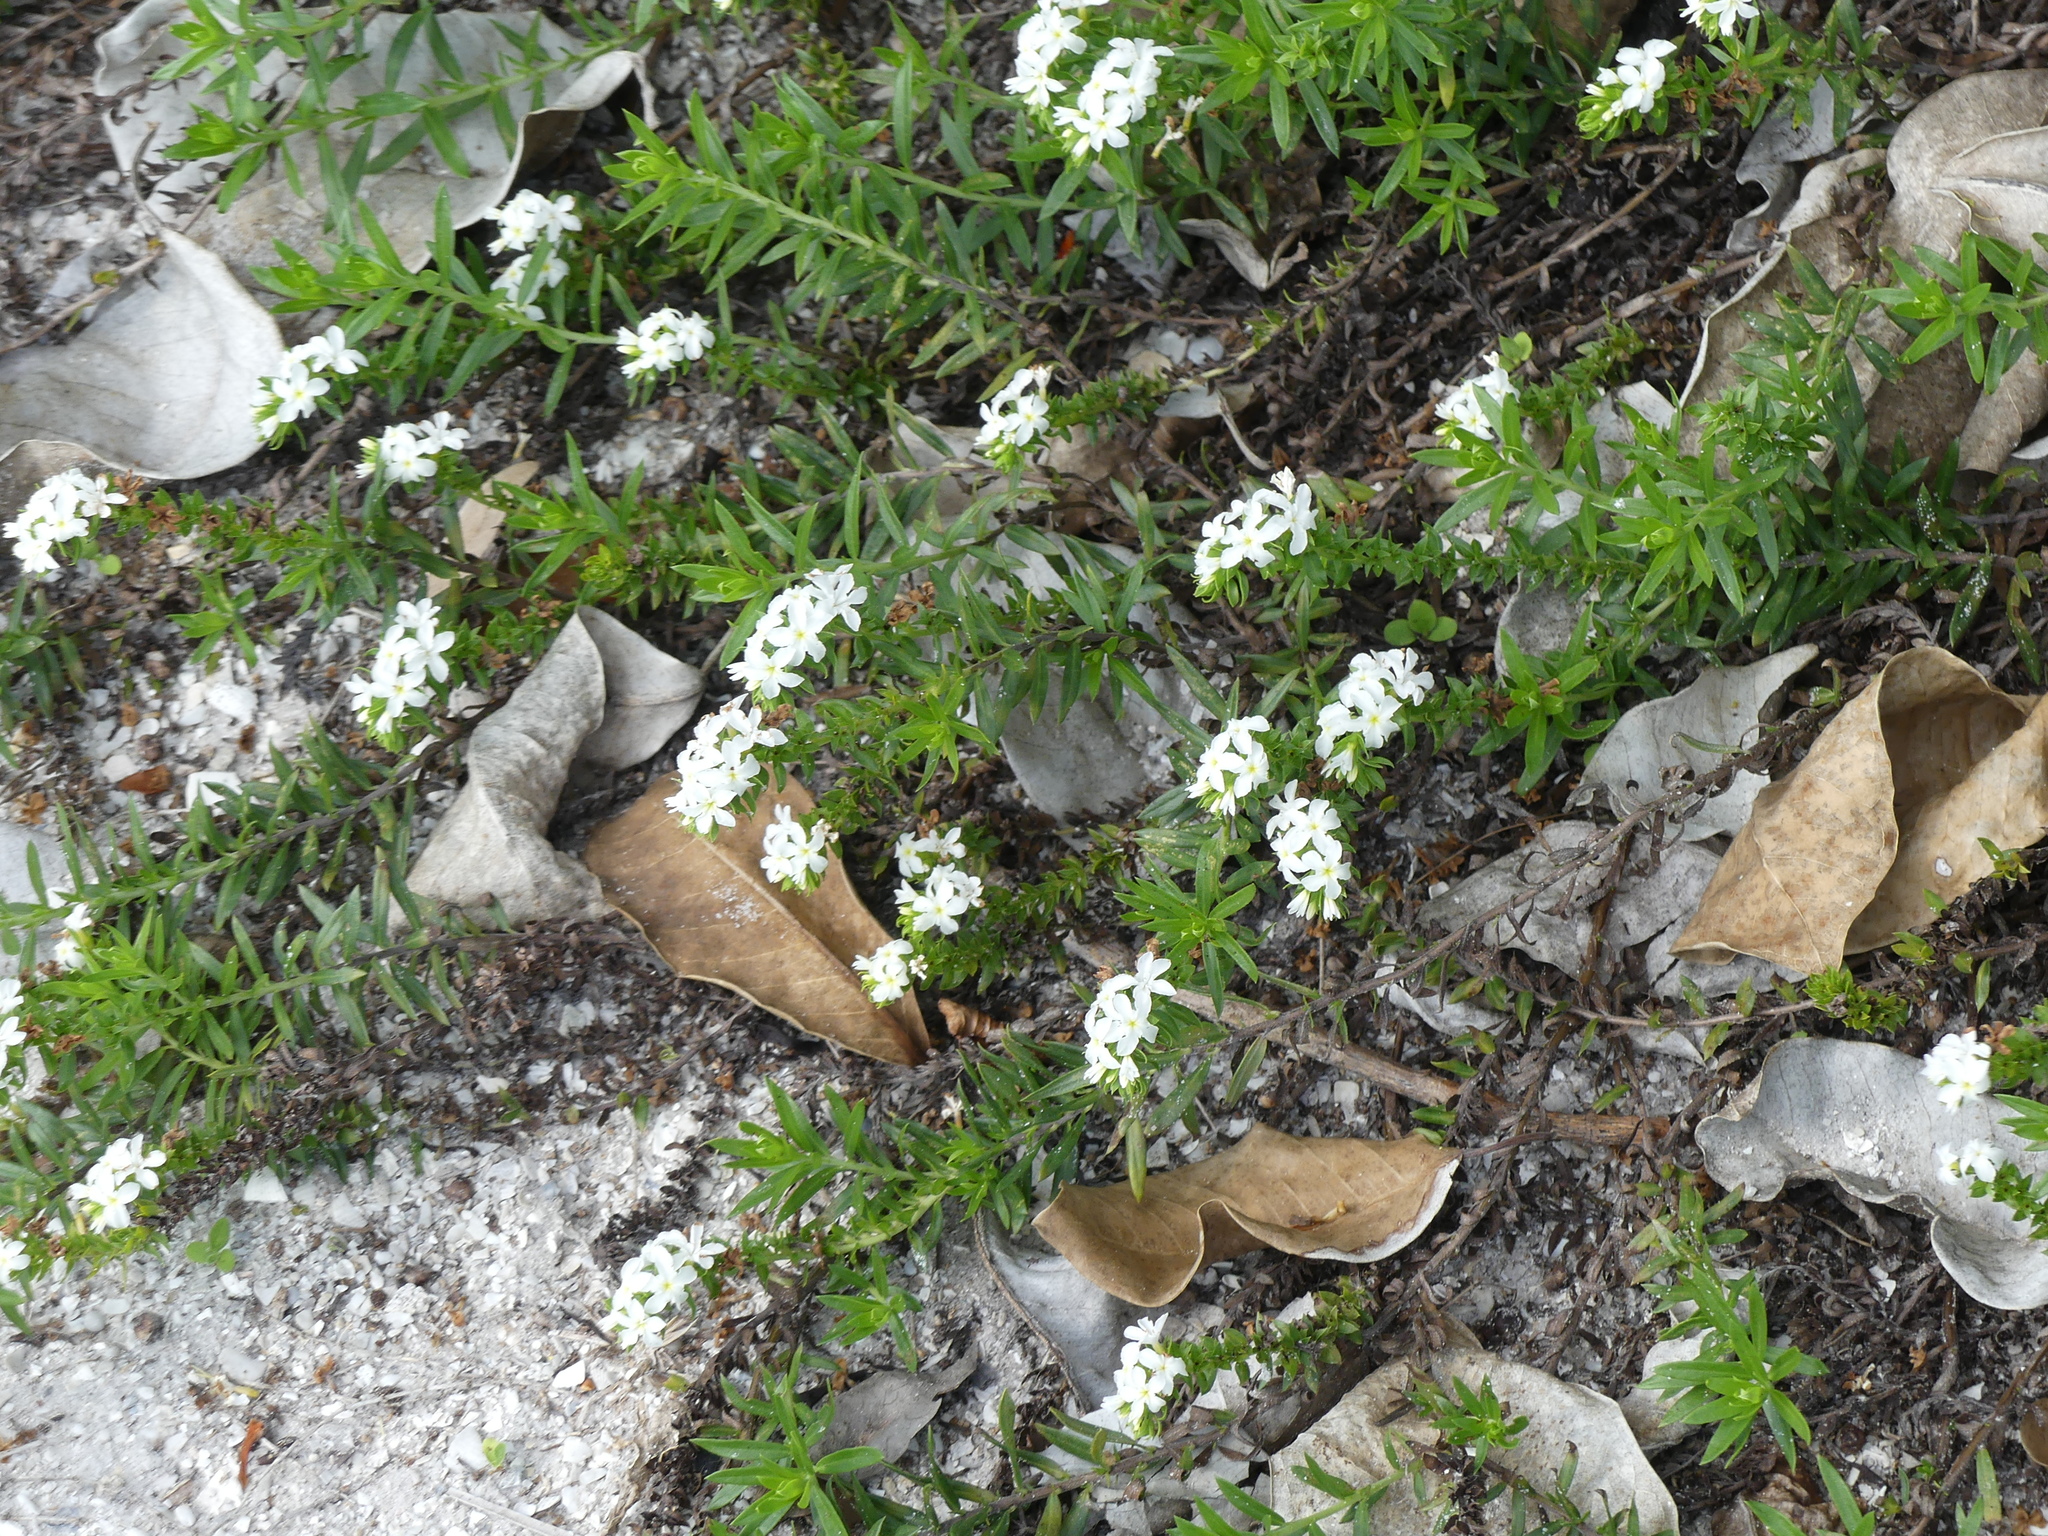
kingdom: Plantae
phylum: Tracheophyta
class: Magnoliopsida
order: Boraginales
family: Heliotropiaceae
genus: Euploca
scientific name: Euploca polyphylla
